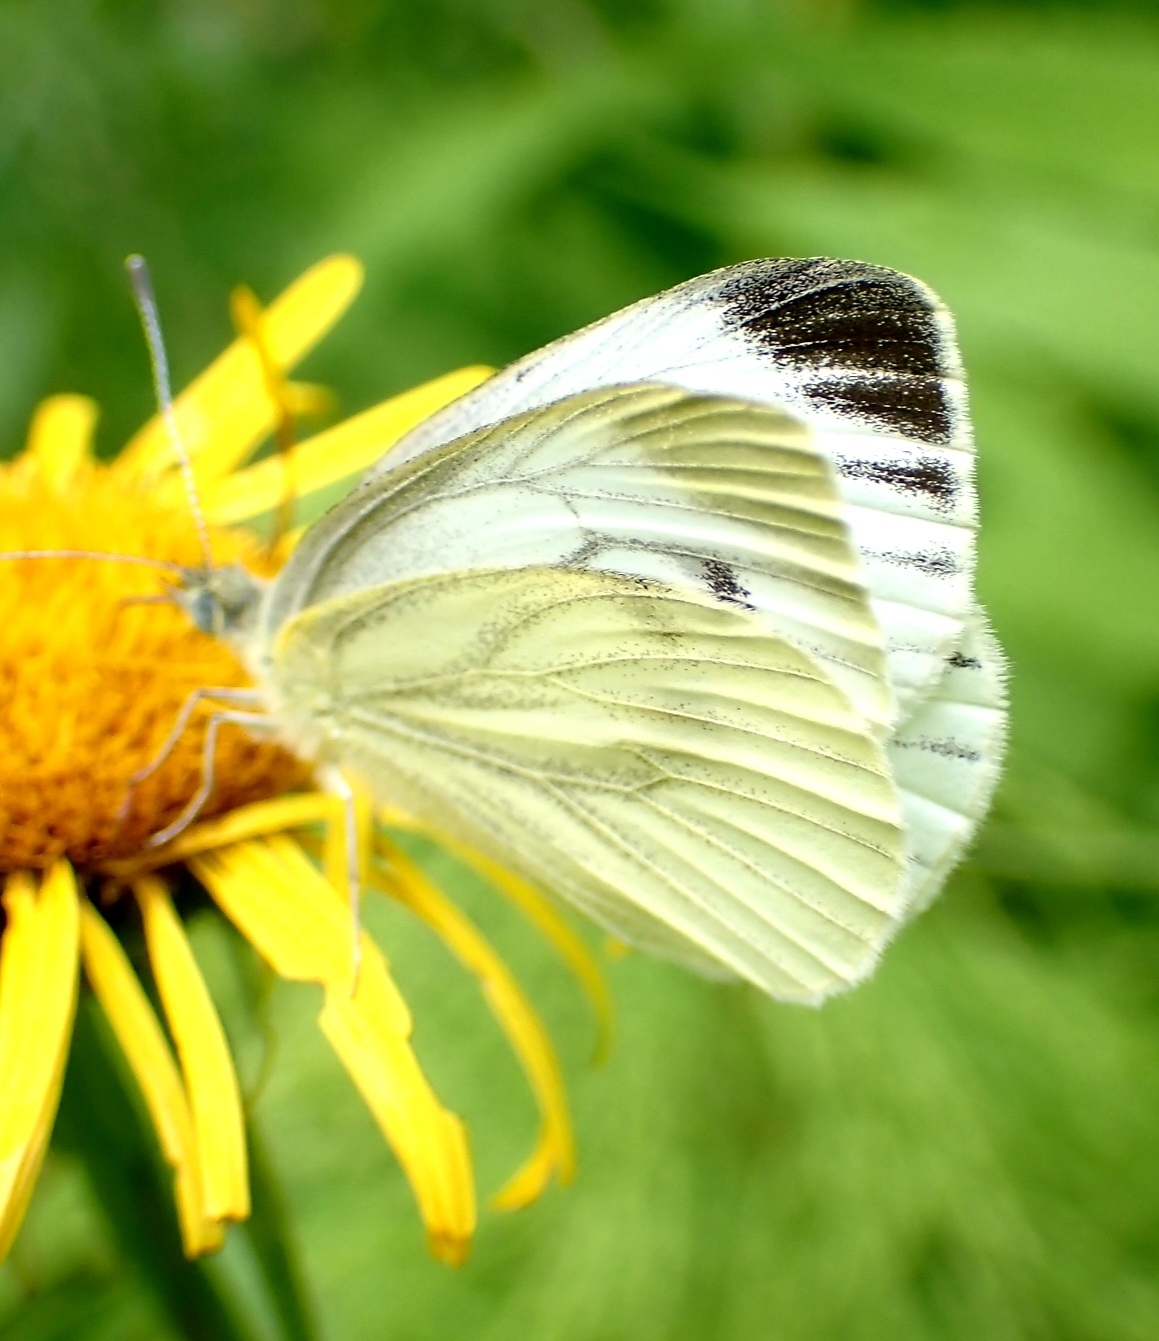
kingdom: Animalia
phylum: Arthropoda
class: Insecta
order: Lepidoptera
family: Pieridae
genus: Pieris
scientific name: Pieris napi
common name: Green-veined white
